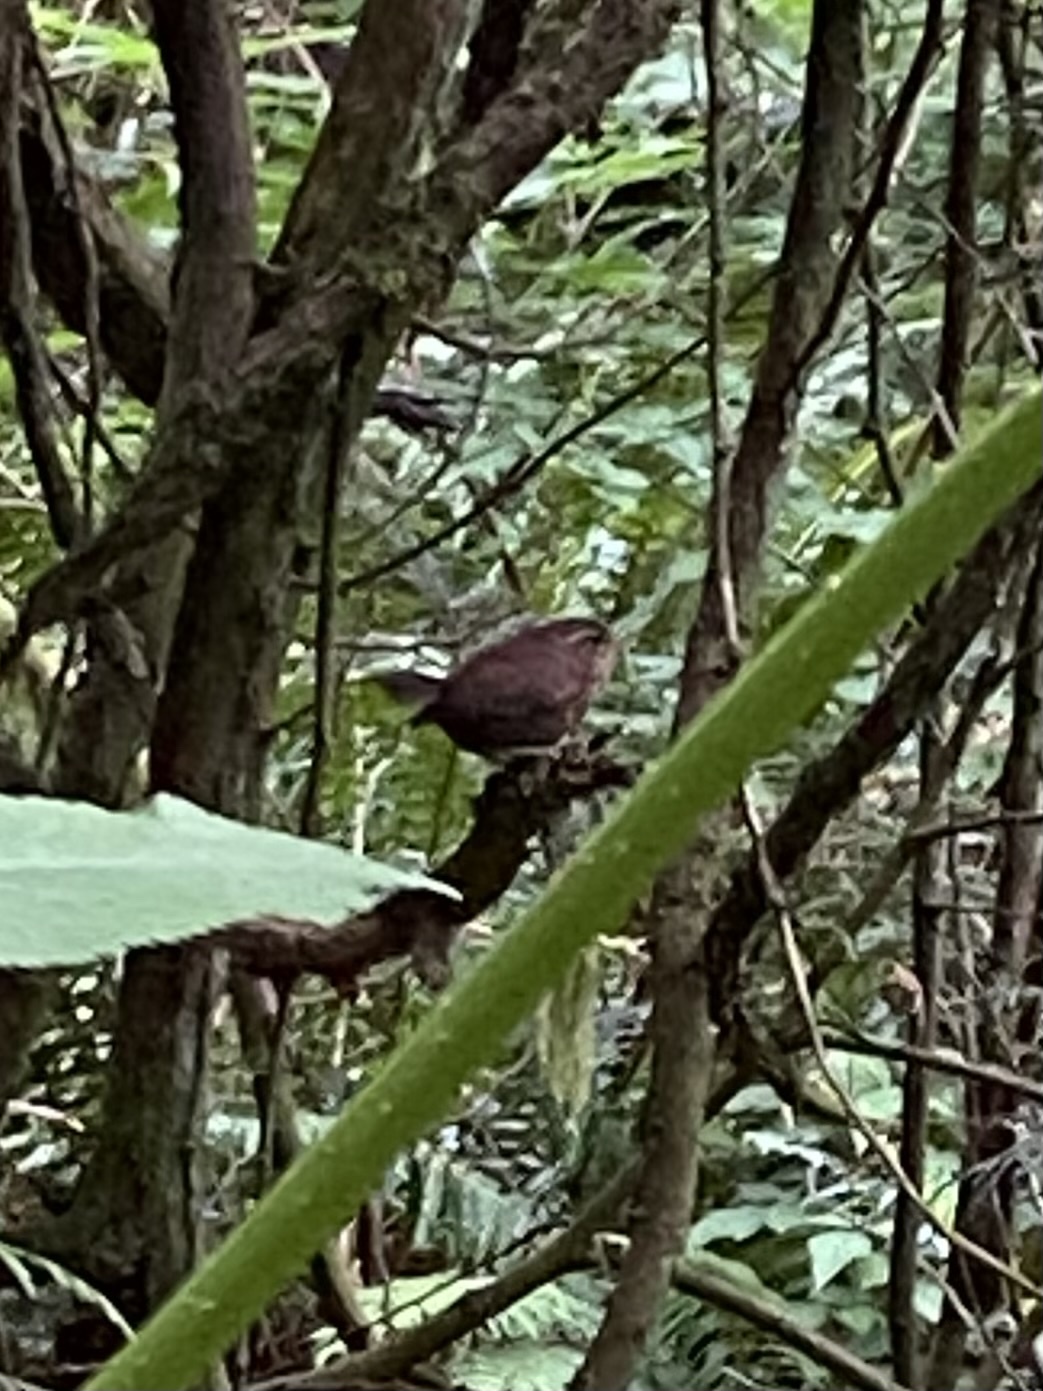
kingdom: Animalia
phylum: Chordata
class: Aves
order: Passeriformes
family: Troglodytidae
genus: Troglodytes
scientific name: Troglodytes pacificus
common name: Pacific wren
